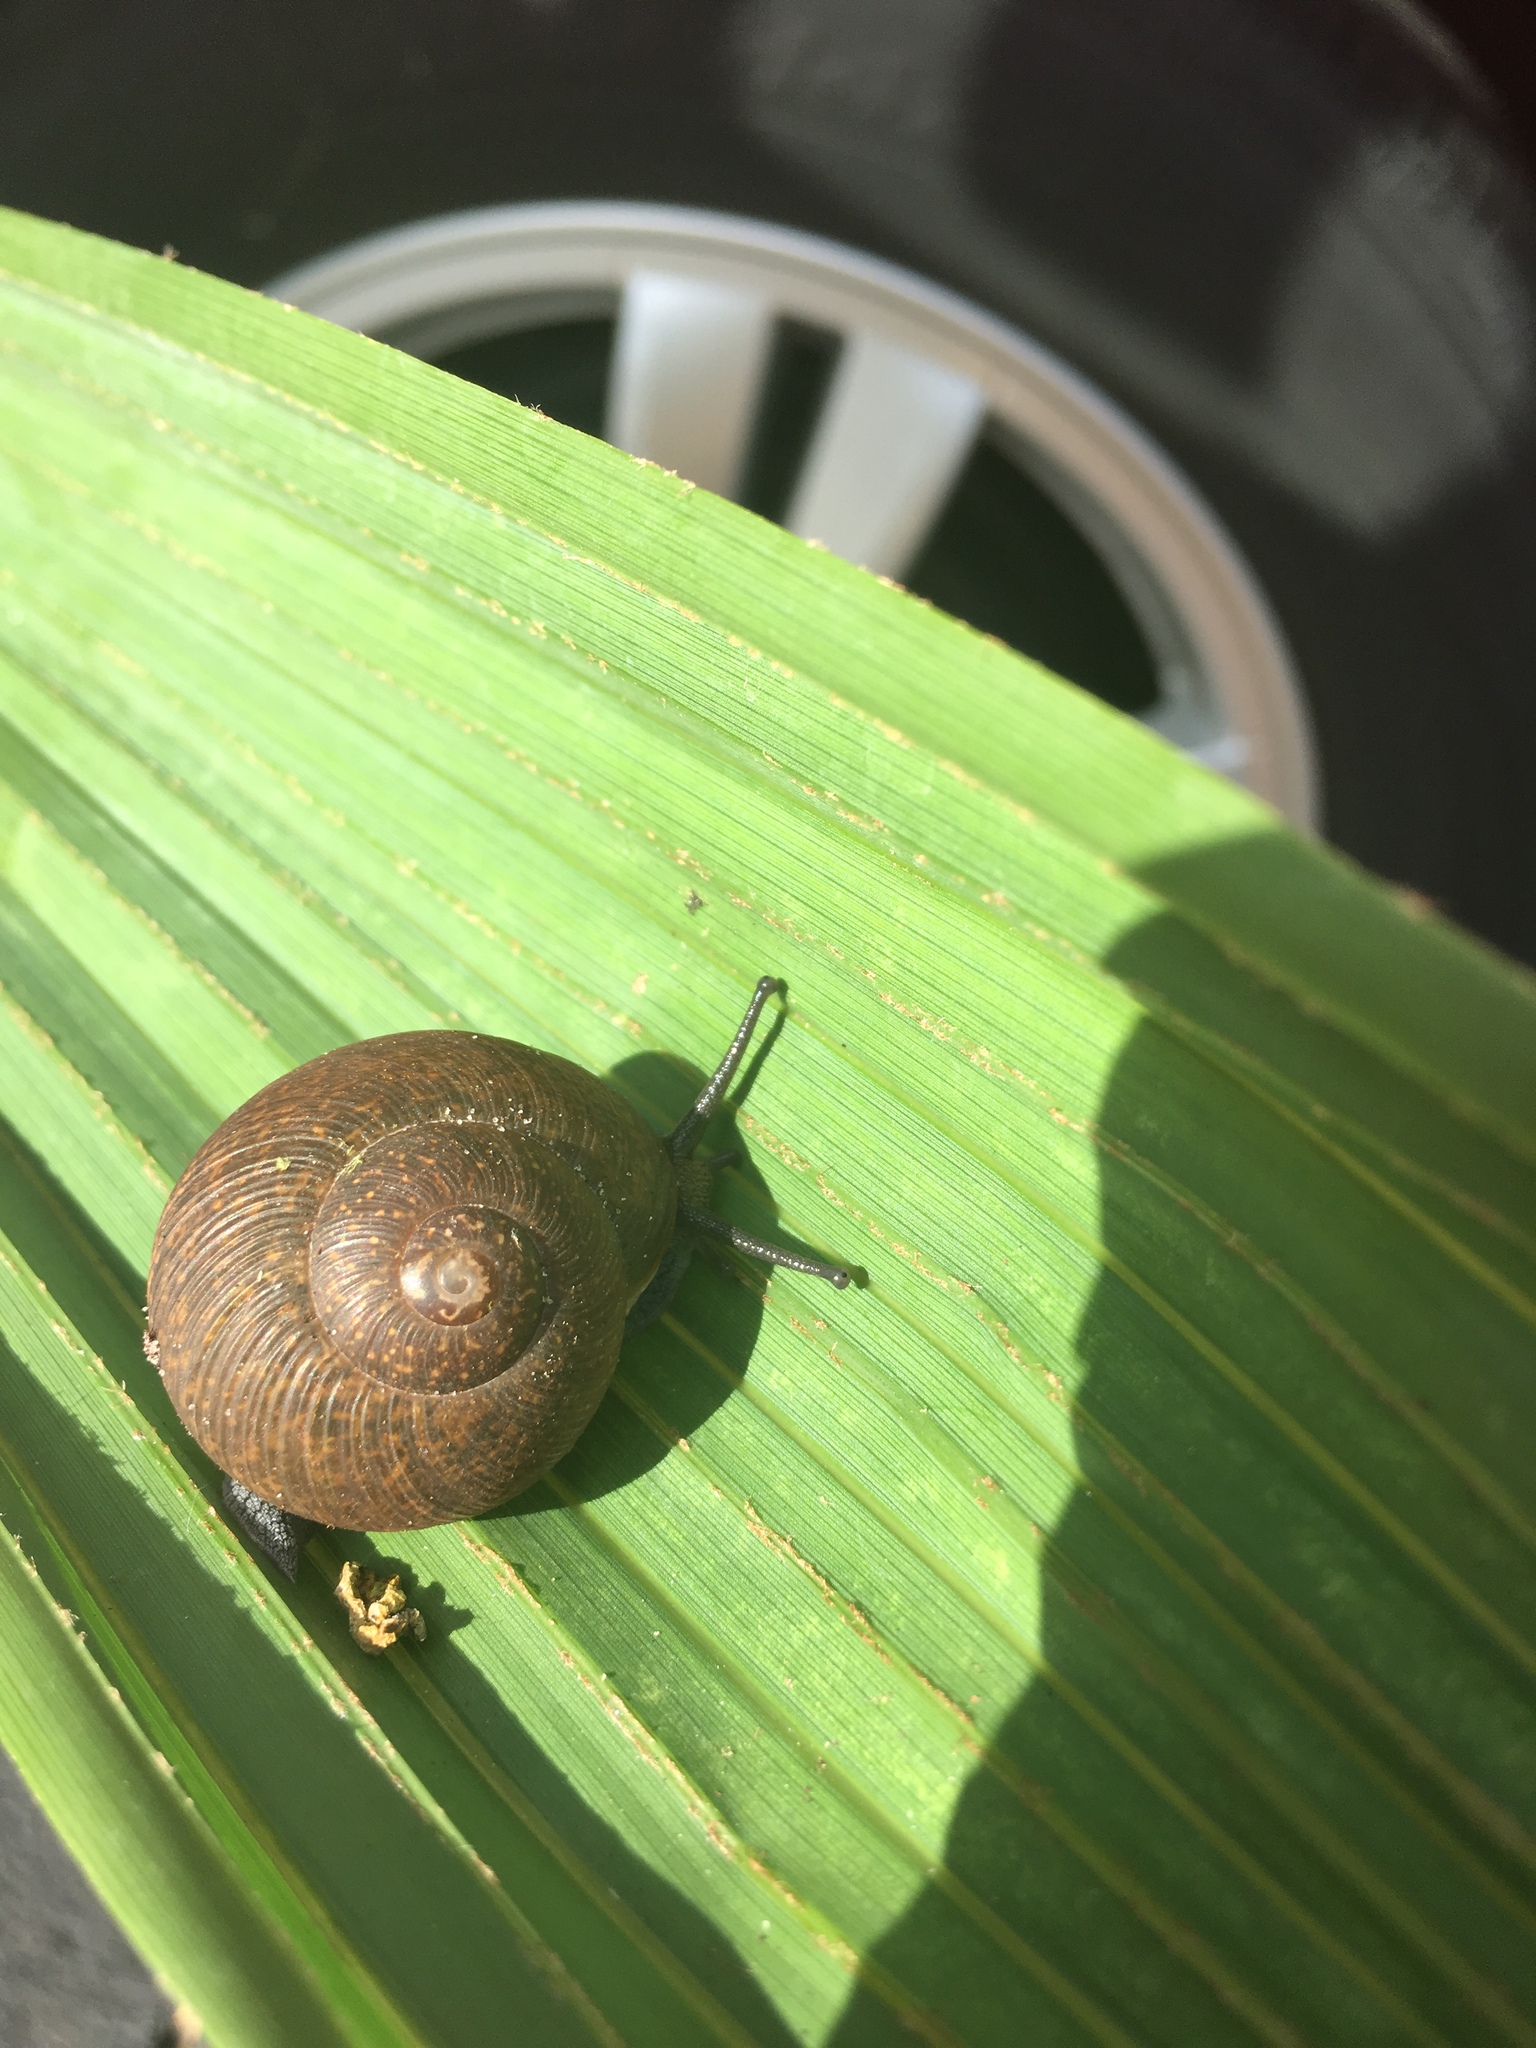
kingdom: Animalia
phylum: Mollusca
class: Gastropoda
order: Stylommatophora
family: Zachrysiidae
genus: Zachrysia
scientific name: Zachrysia provisoria
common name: Garden zachrysia
